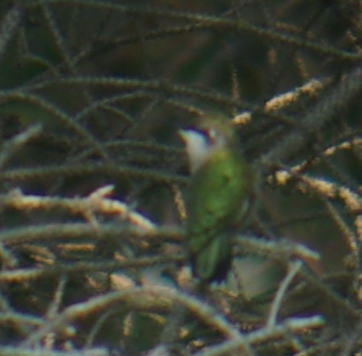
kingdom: Animalia
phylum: Chordata
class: Aves
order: Apodiformes
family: Trochilidae
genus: Archilochus
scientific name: Archilochus colubris
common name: Ruby-throated hummingbird
